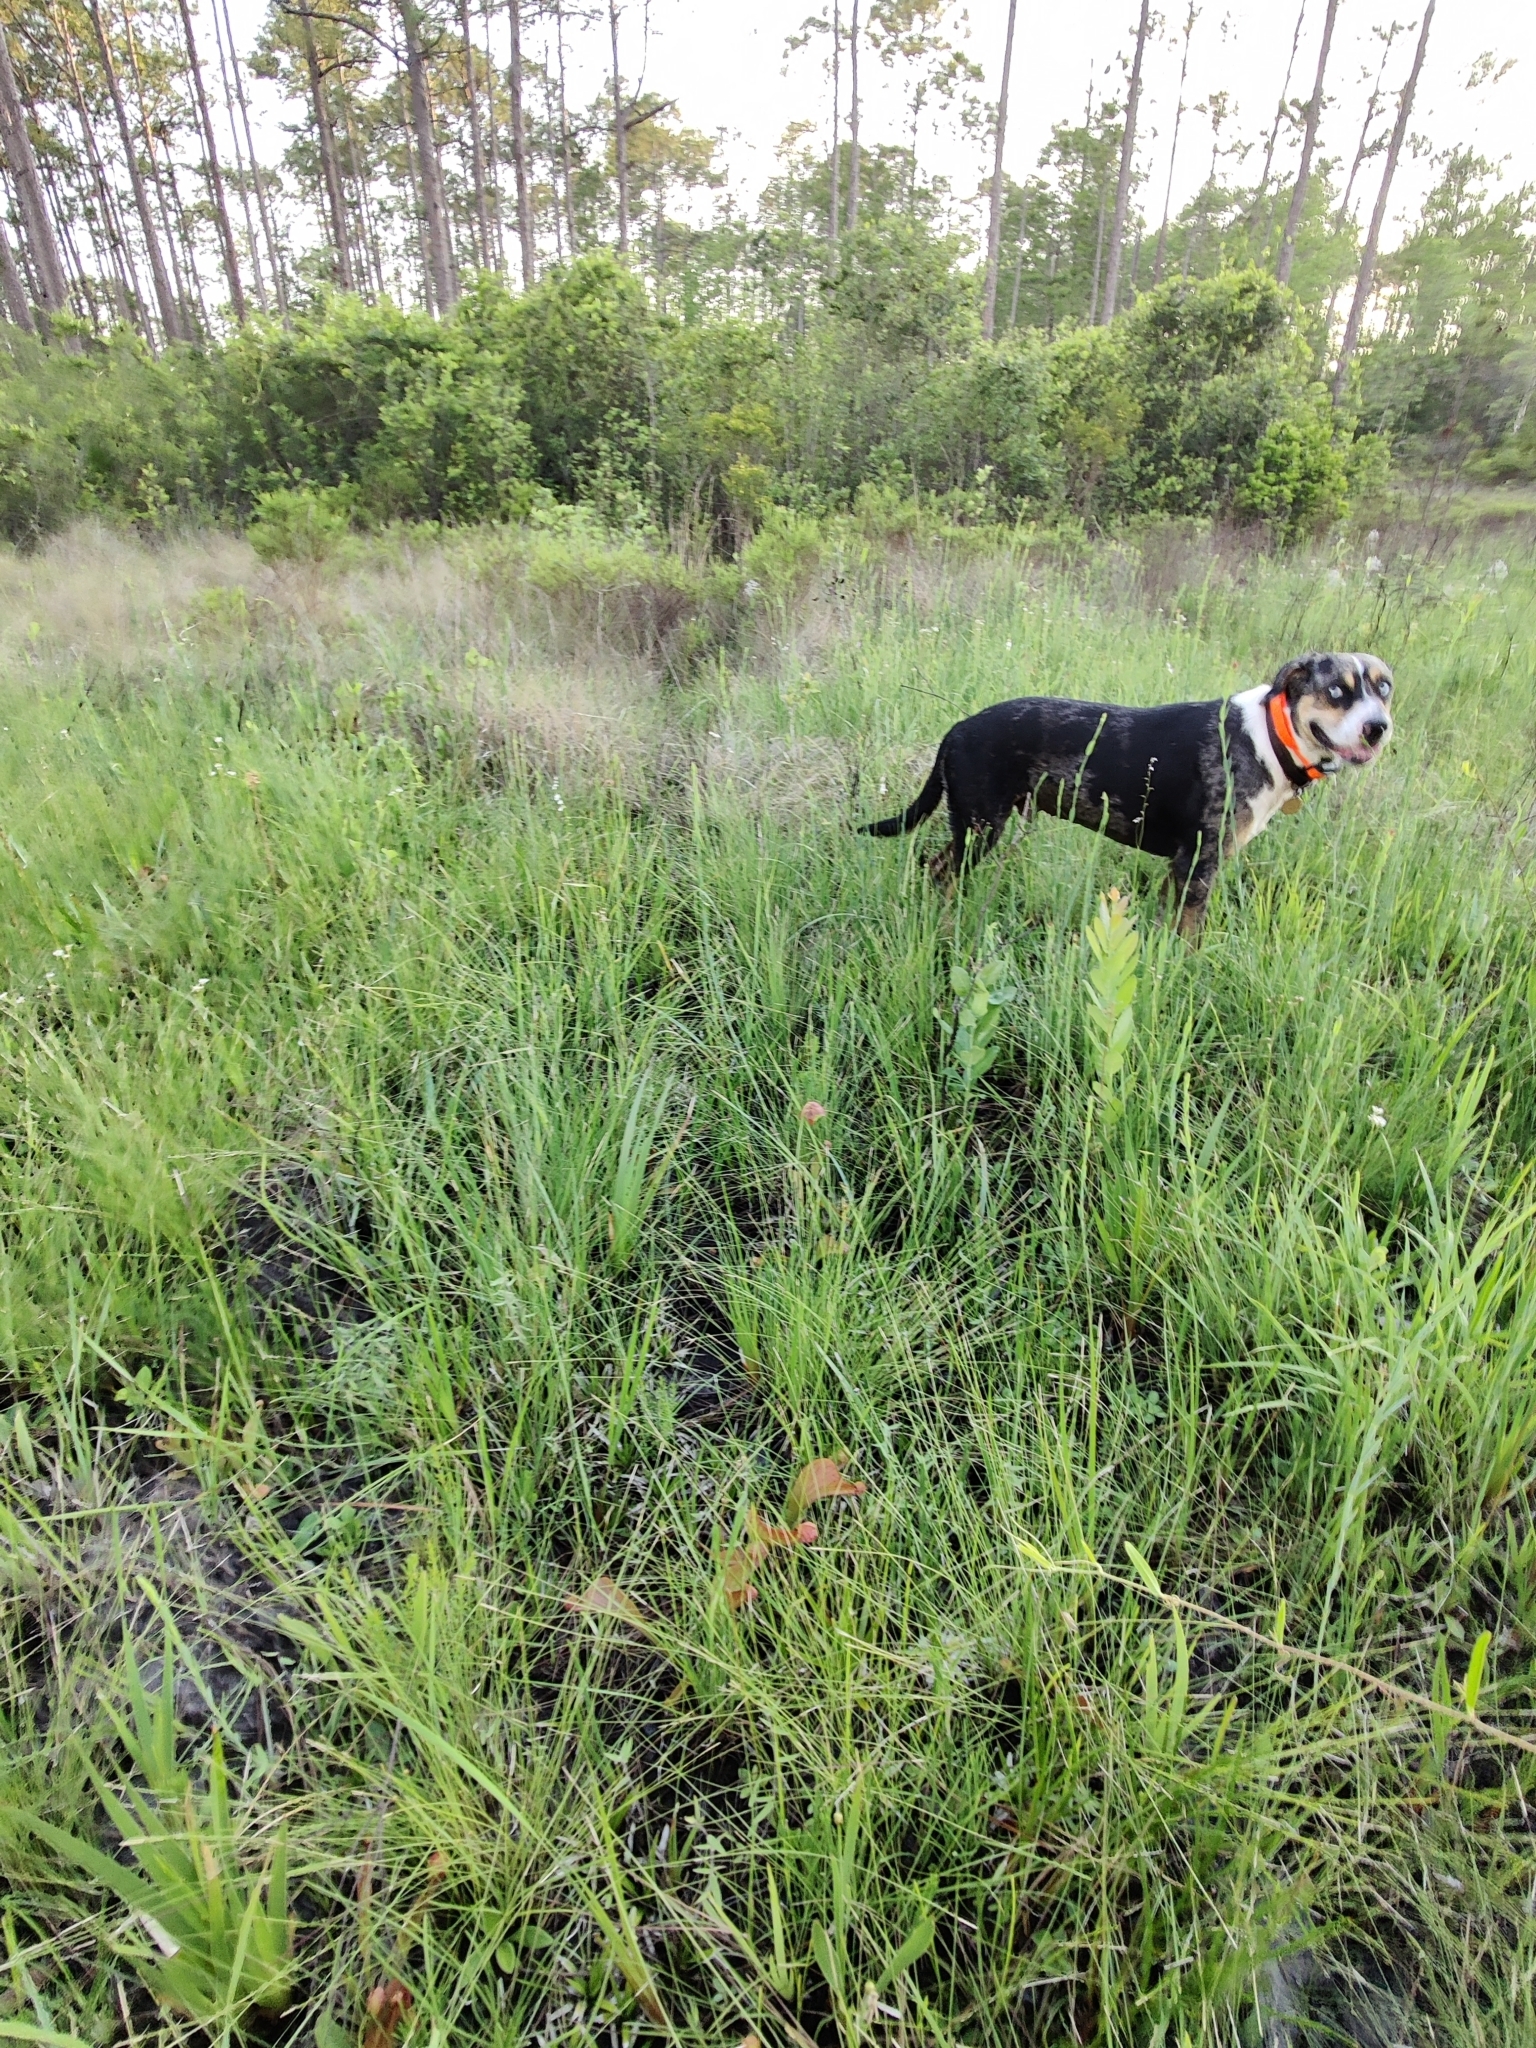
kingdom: Plantae
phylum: Tracheophyta
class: Magnoliopsida
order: Ericales
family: Sarraceniaceae
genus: Sarracenia
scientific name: Sarracenia psittacina
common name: Parrot pitcherplant
